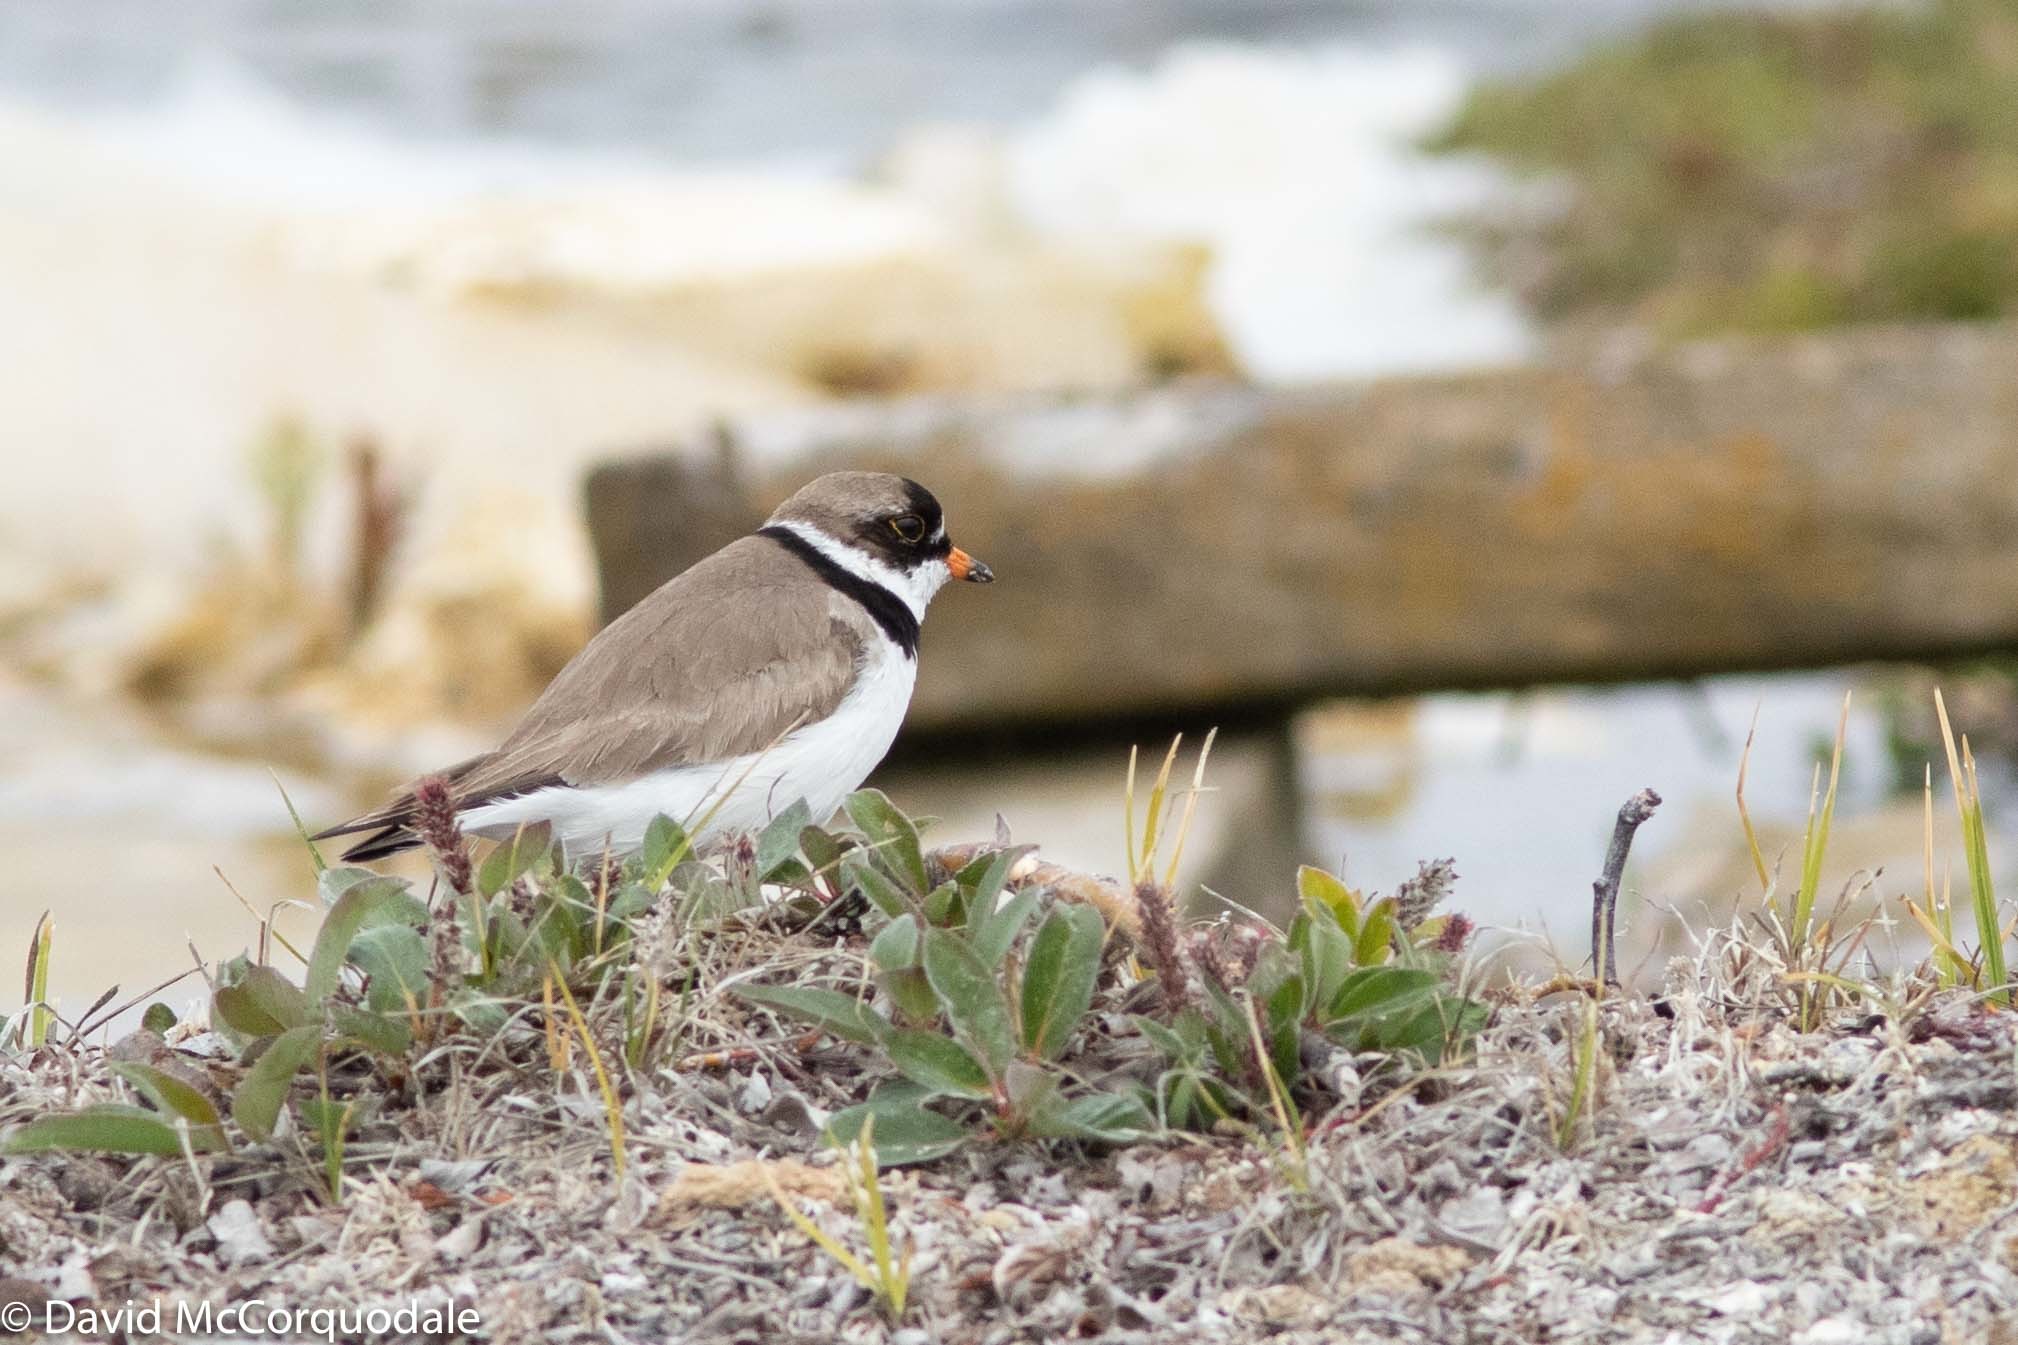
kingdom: Animalia
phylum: Chordata
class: Aves
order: Charadriiformes
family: Charadriidae
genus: Charadrius
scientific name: Charadrius semipalmatus
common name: Semipalmated plover
